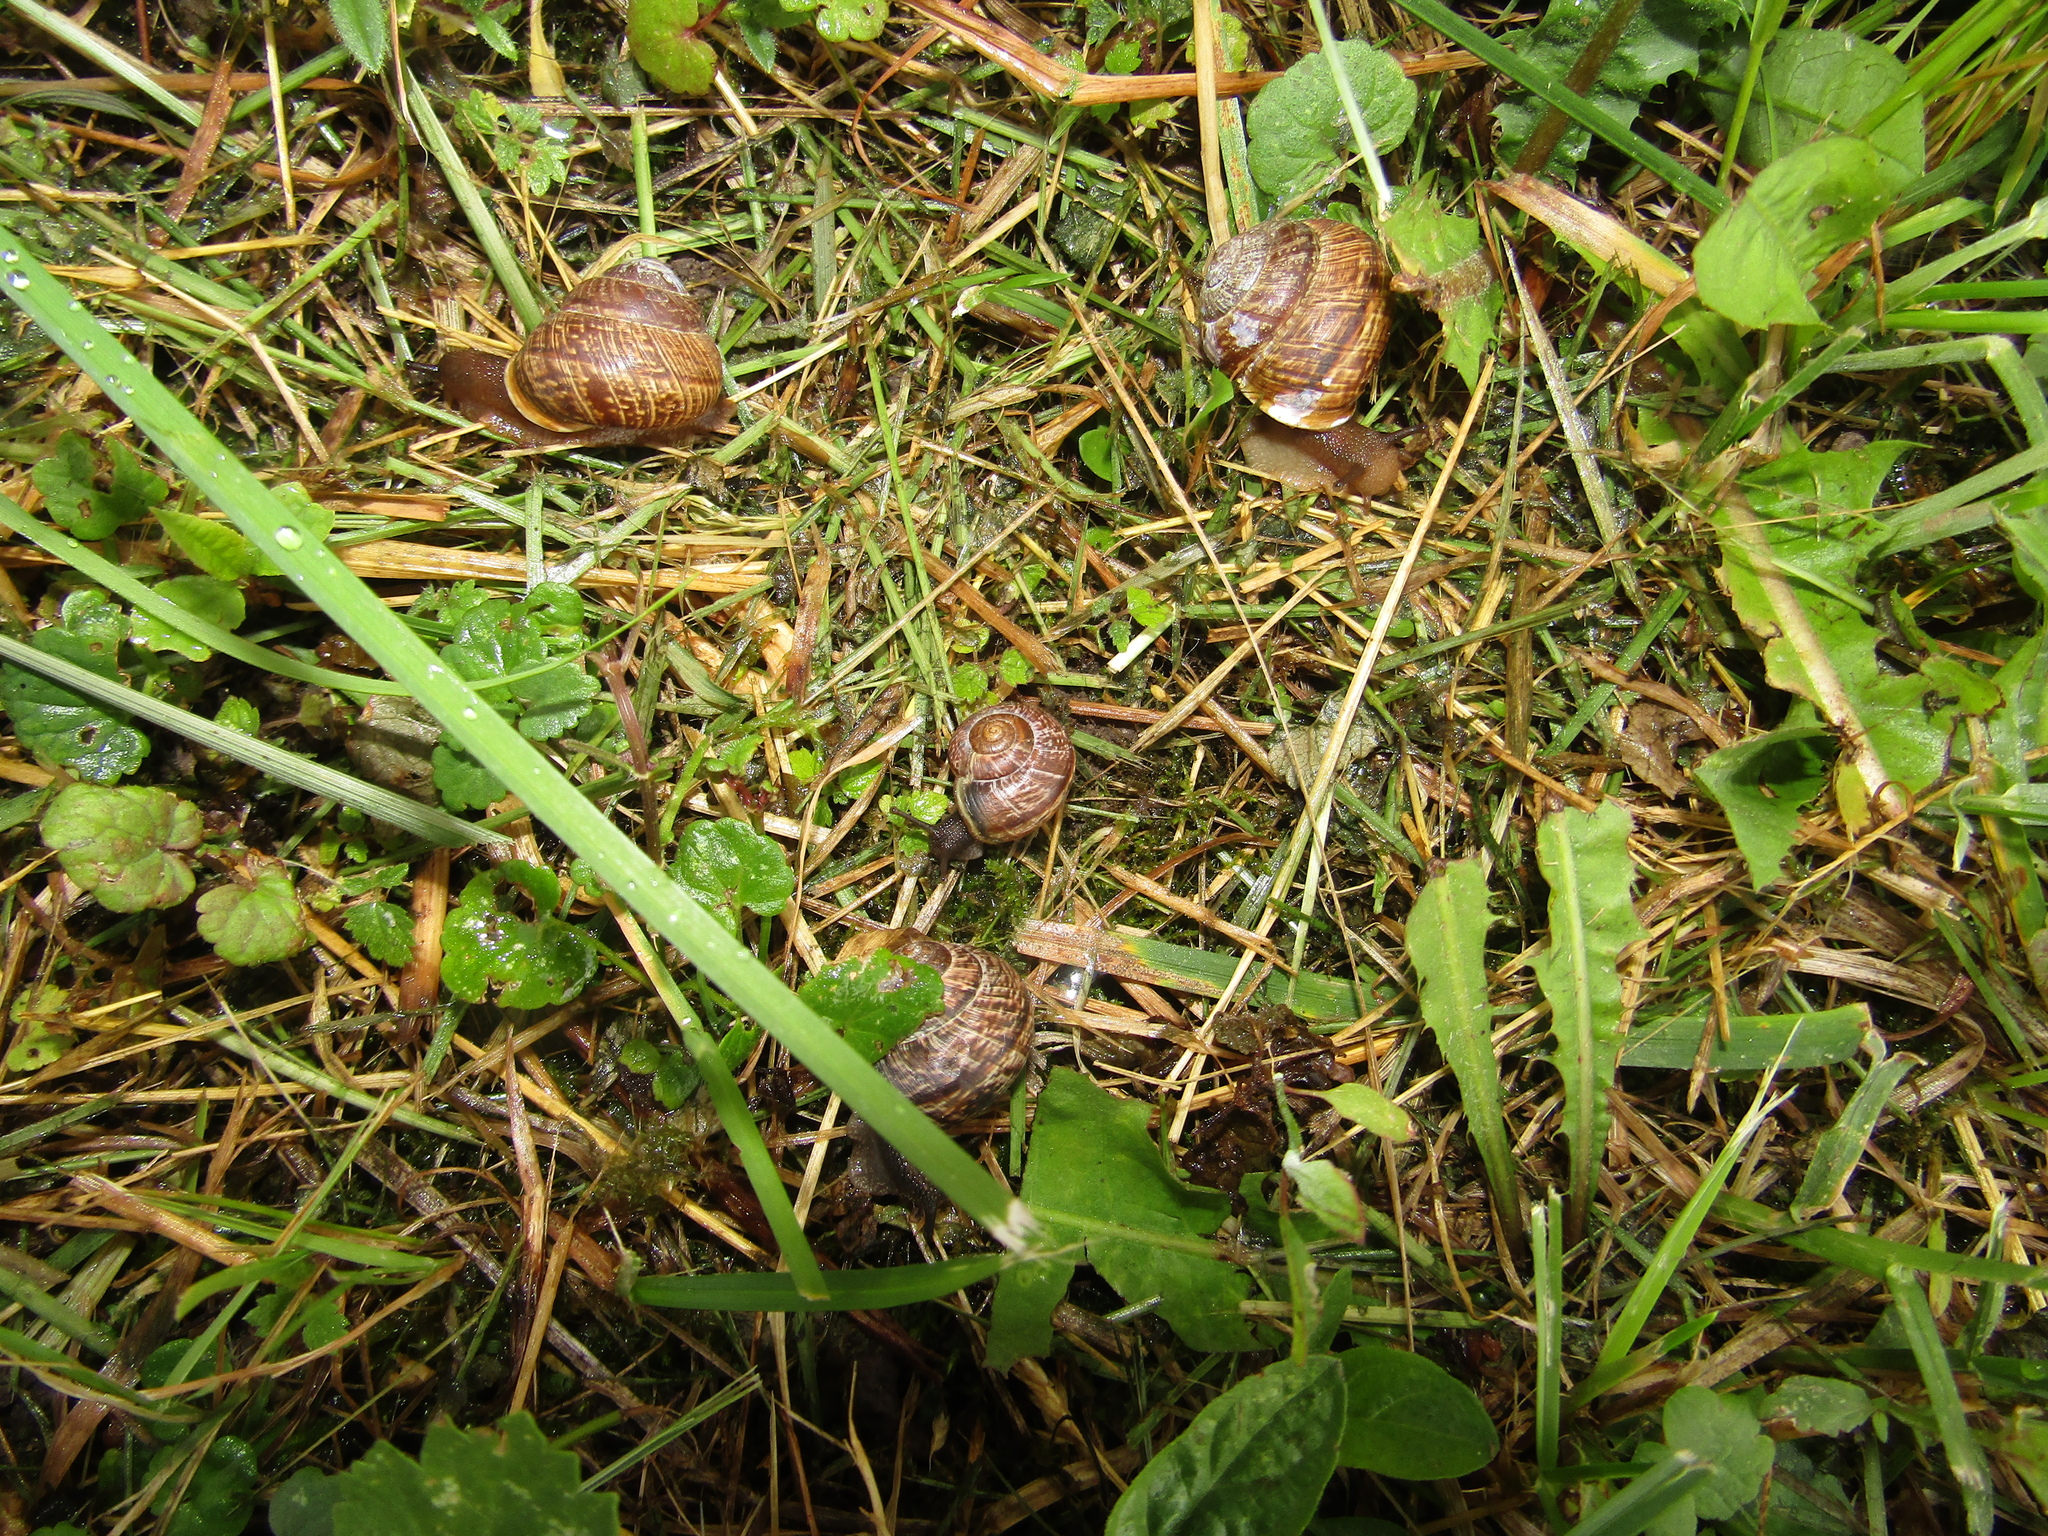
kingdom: Animalia
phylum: Mollusca
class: Gastropoda
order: Stylommatophora
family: Helicidae
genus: Arianta
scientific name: Arianta arbustorum
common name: Copse snail
